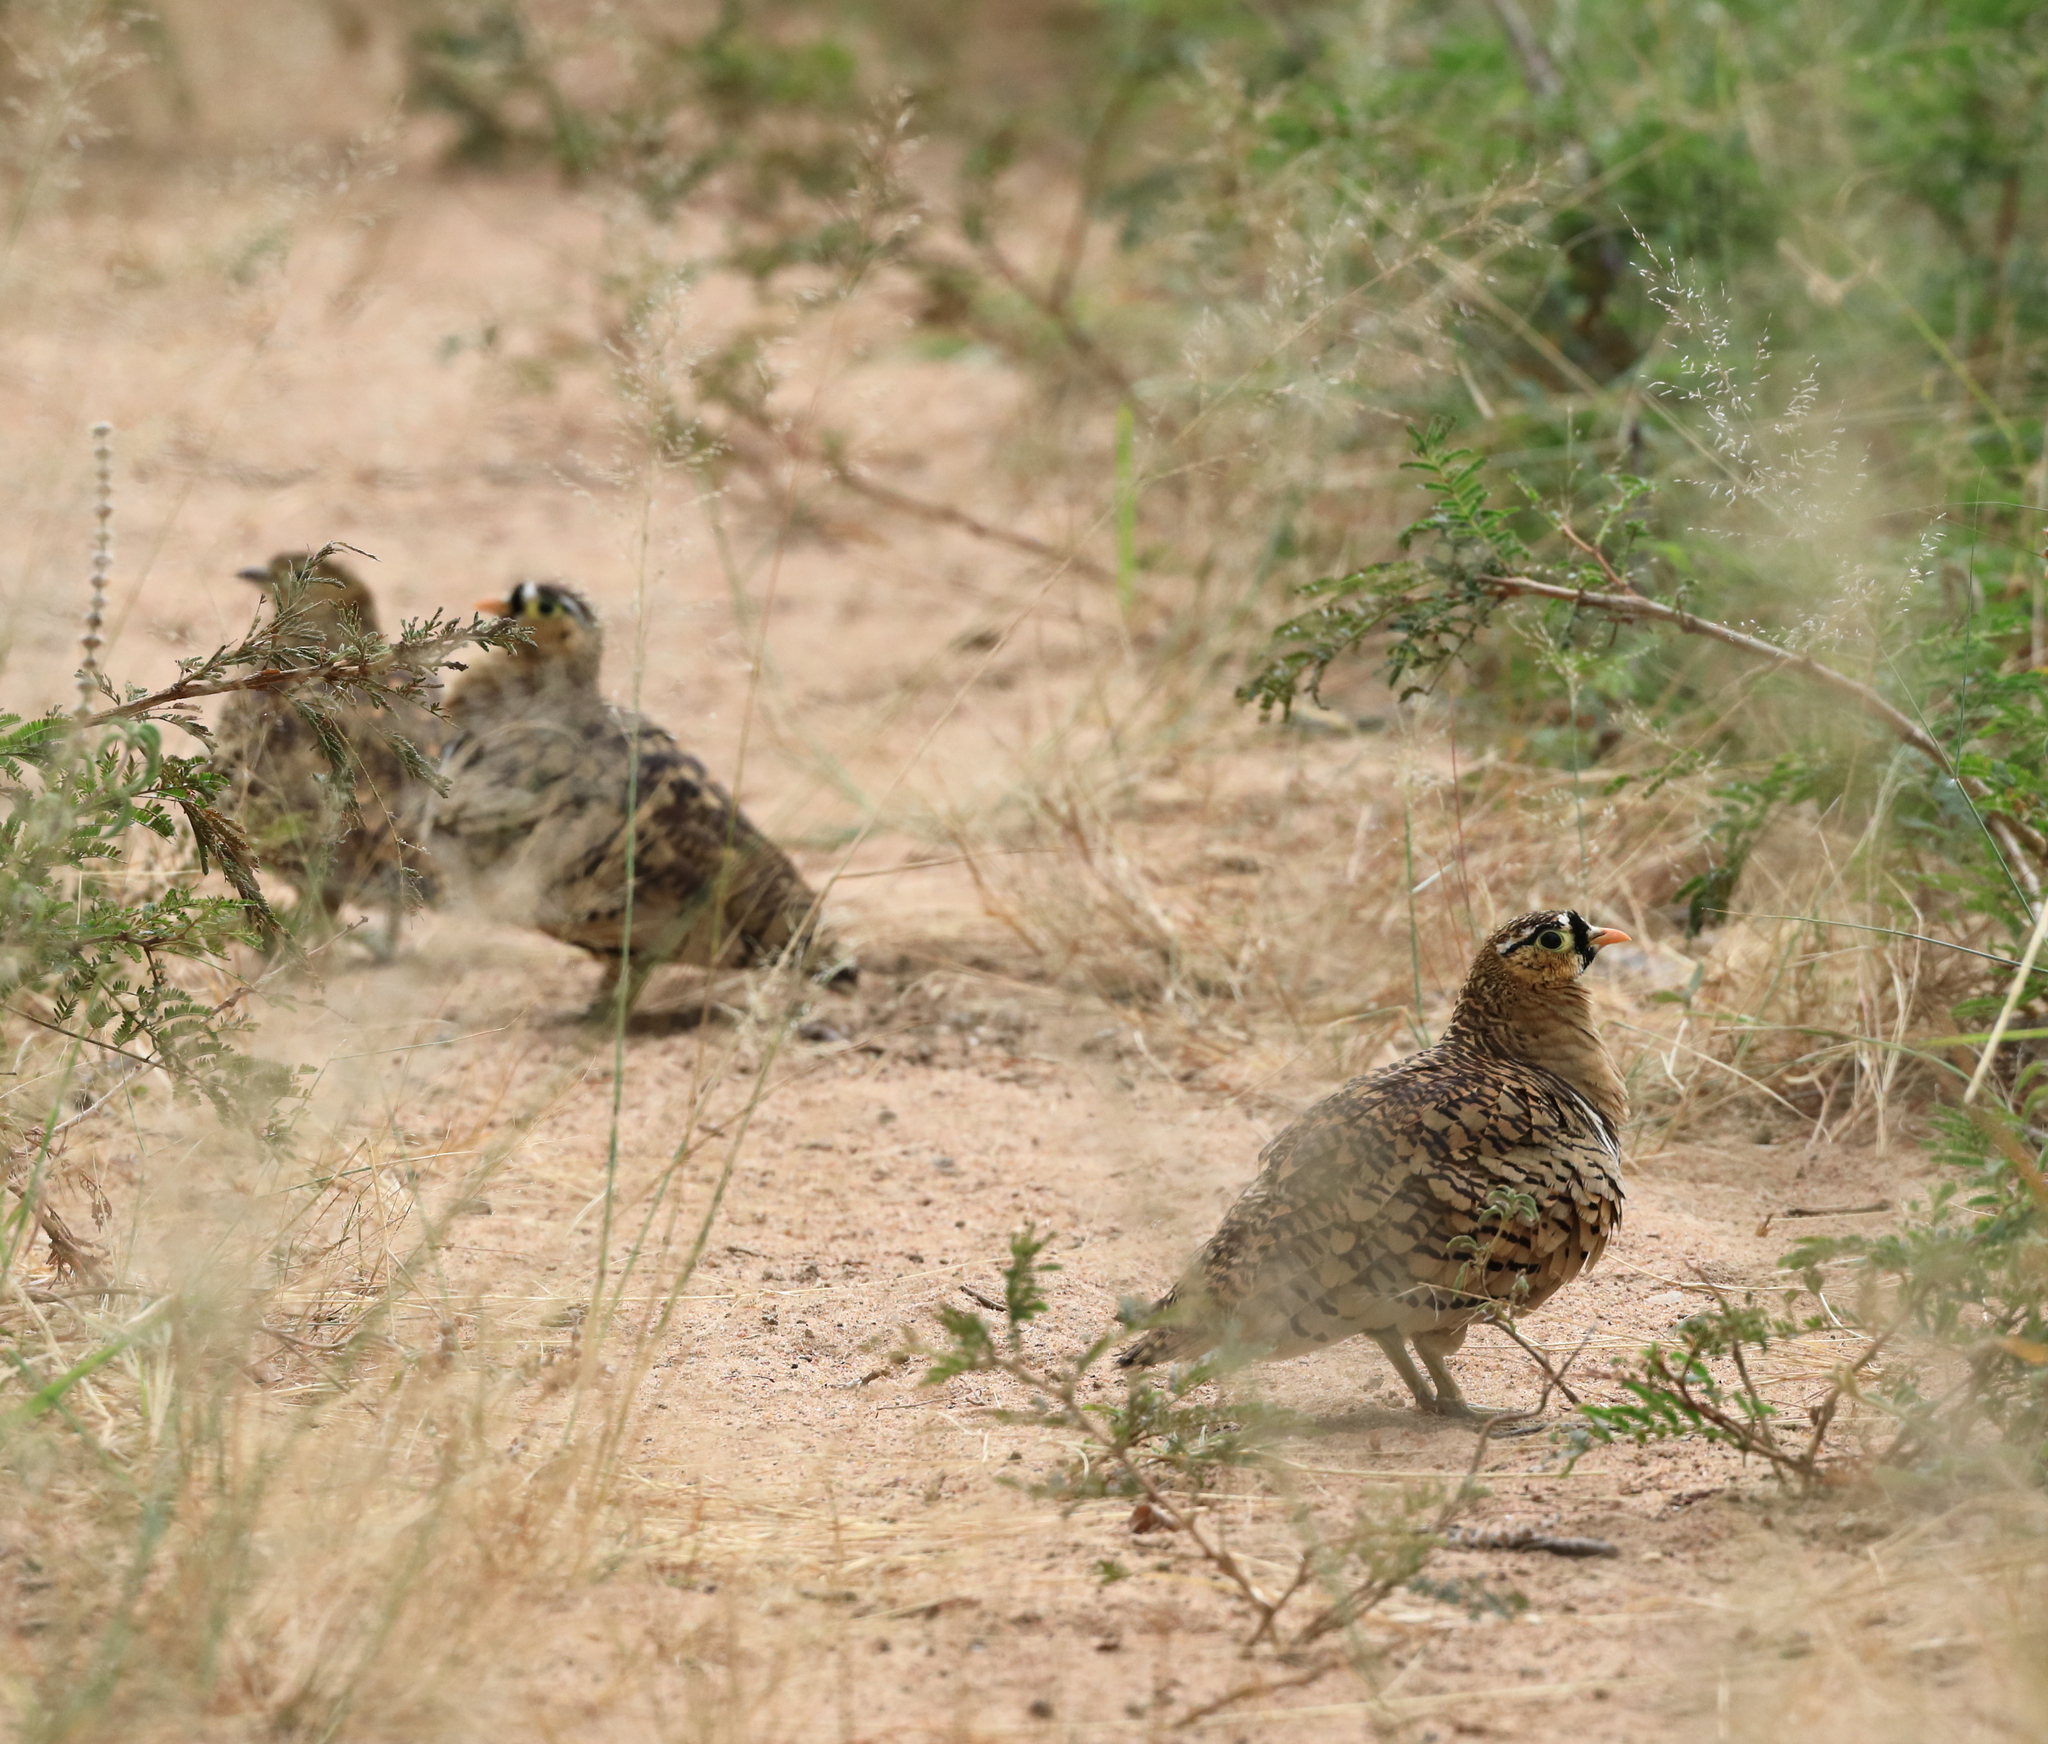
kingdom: Animalia
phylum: Chordata
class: Aves
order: Pteroclidiformes
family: Pteroclididae
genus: Pterocles
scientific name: Pterocles decoratus
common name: Black-faced sandgrouse
